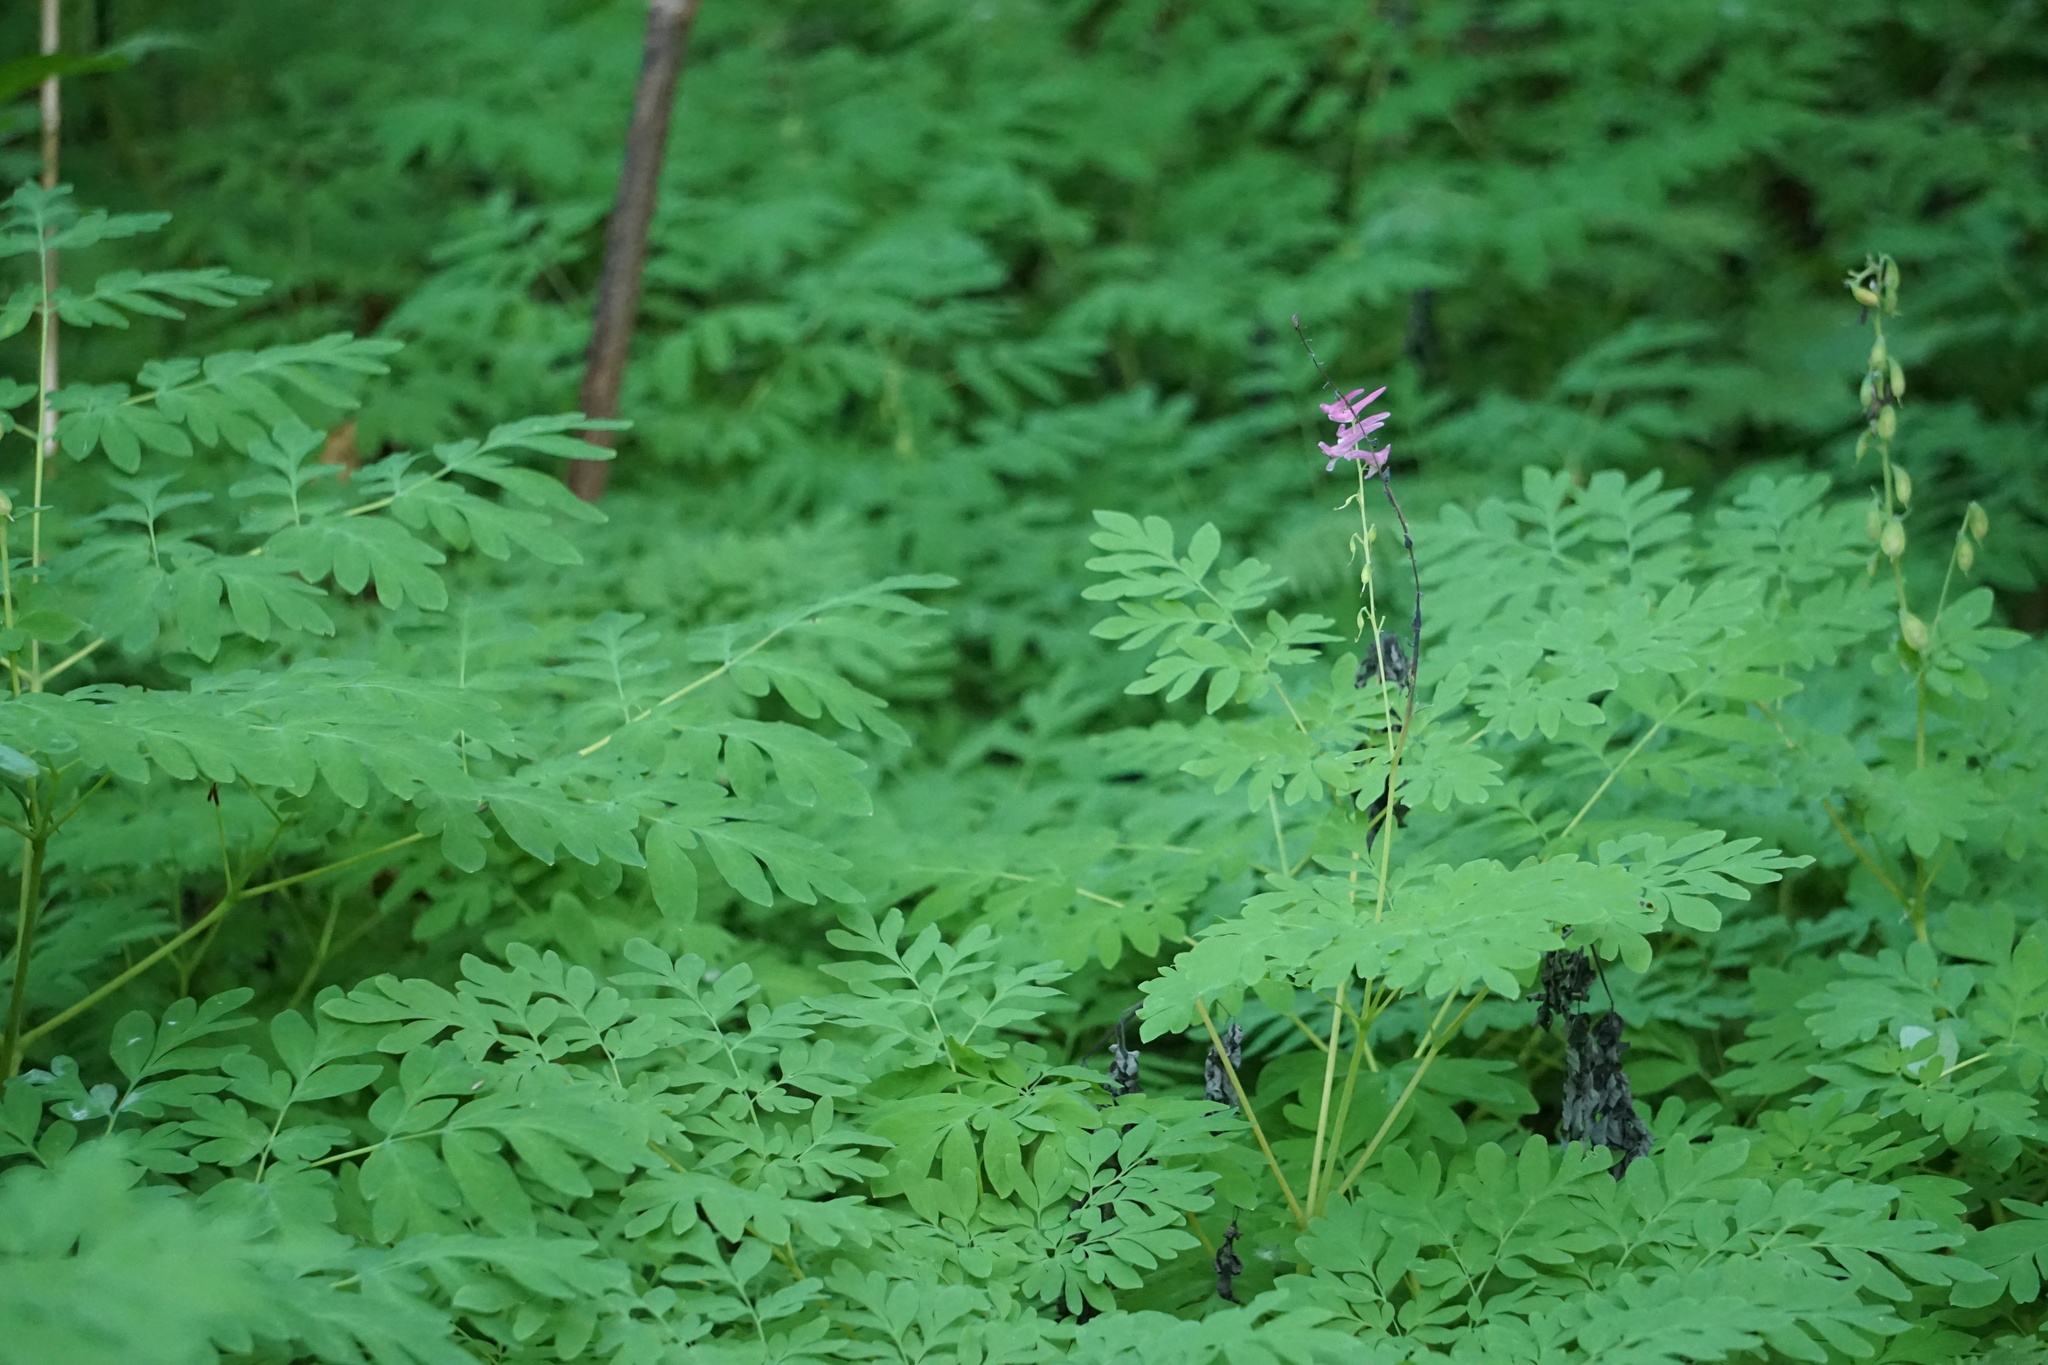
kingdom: Plantae
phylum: Tracheophyta
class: Magnoliopsida
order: Ranunculales
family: Papaveraceae
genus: Corydalis
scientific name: Corydalis scouleri
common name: Scouler's corydalis
